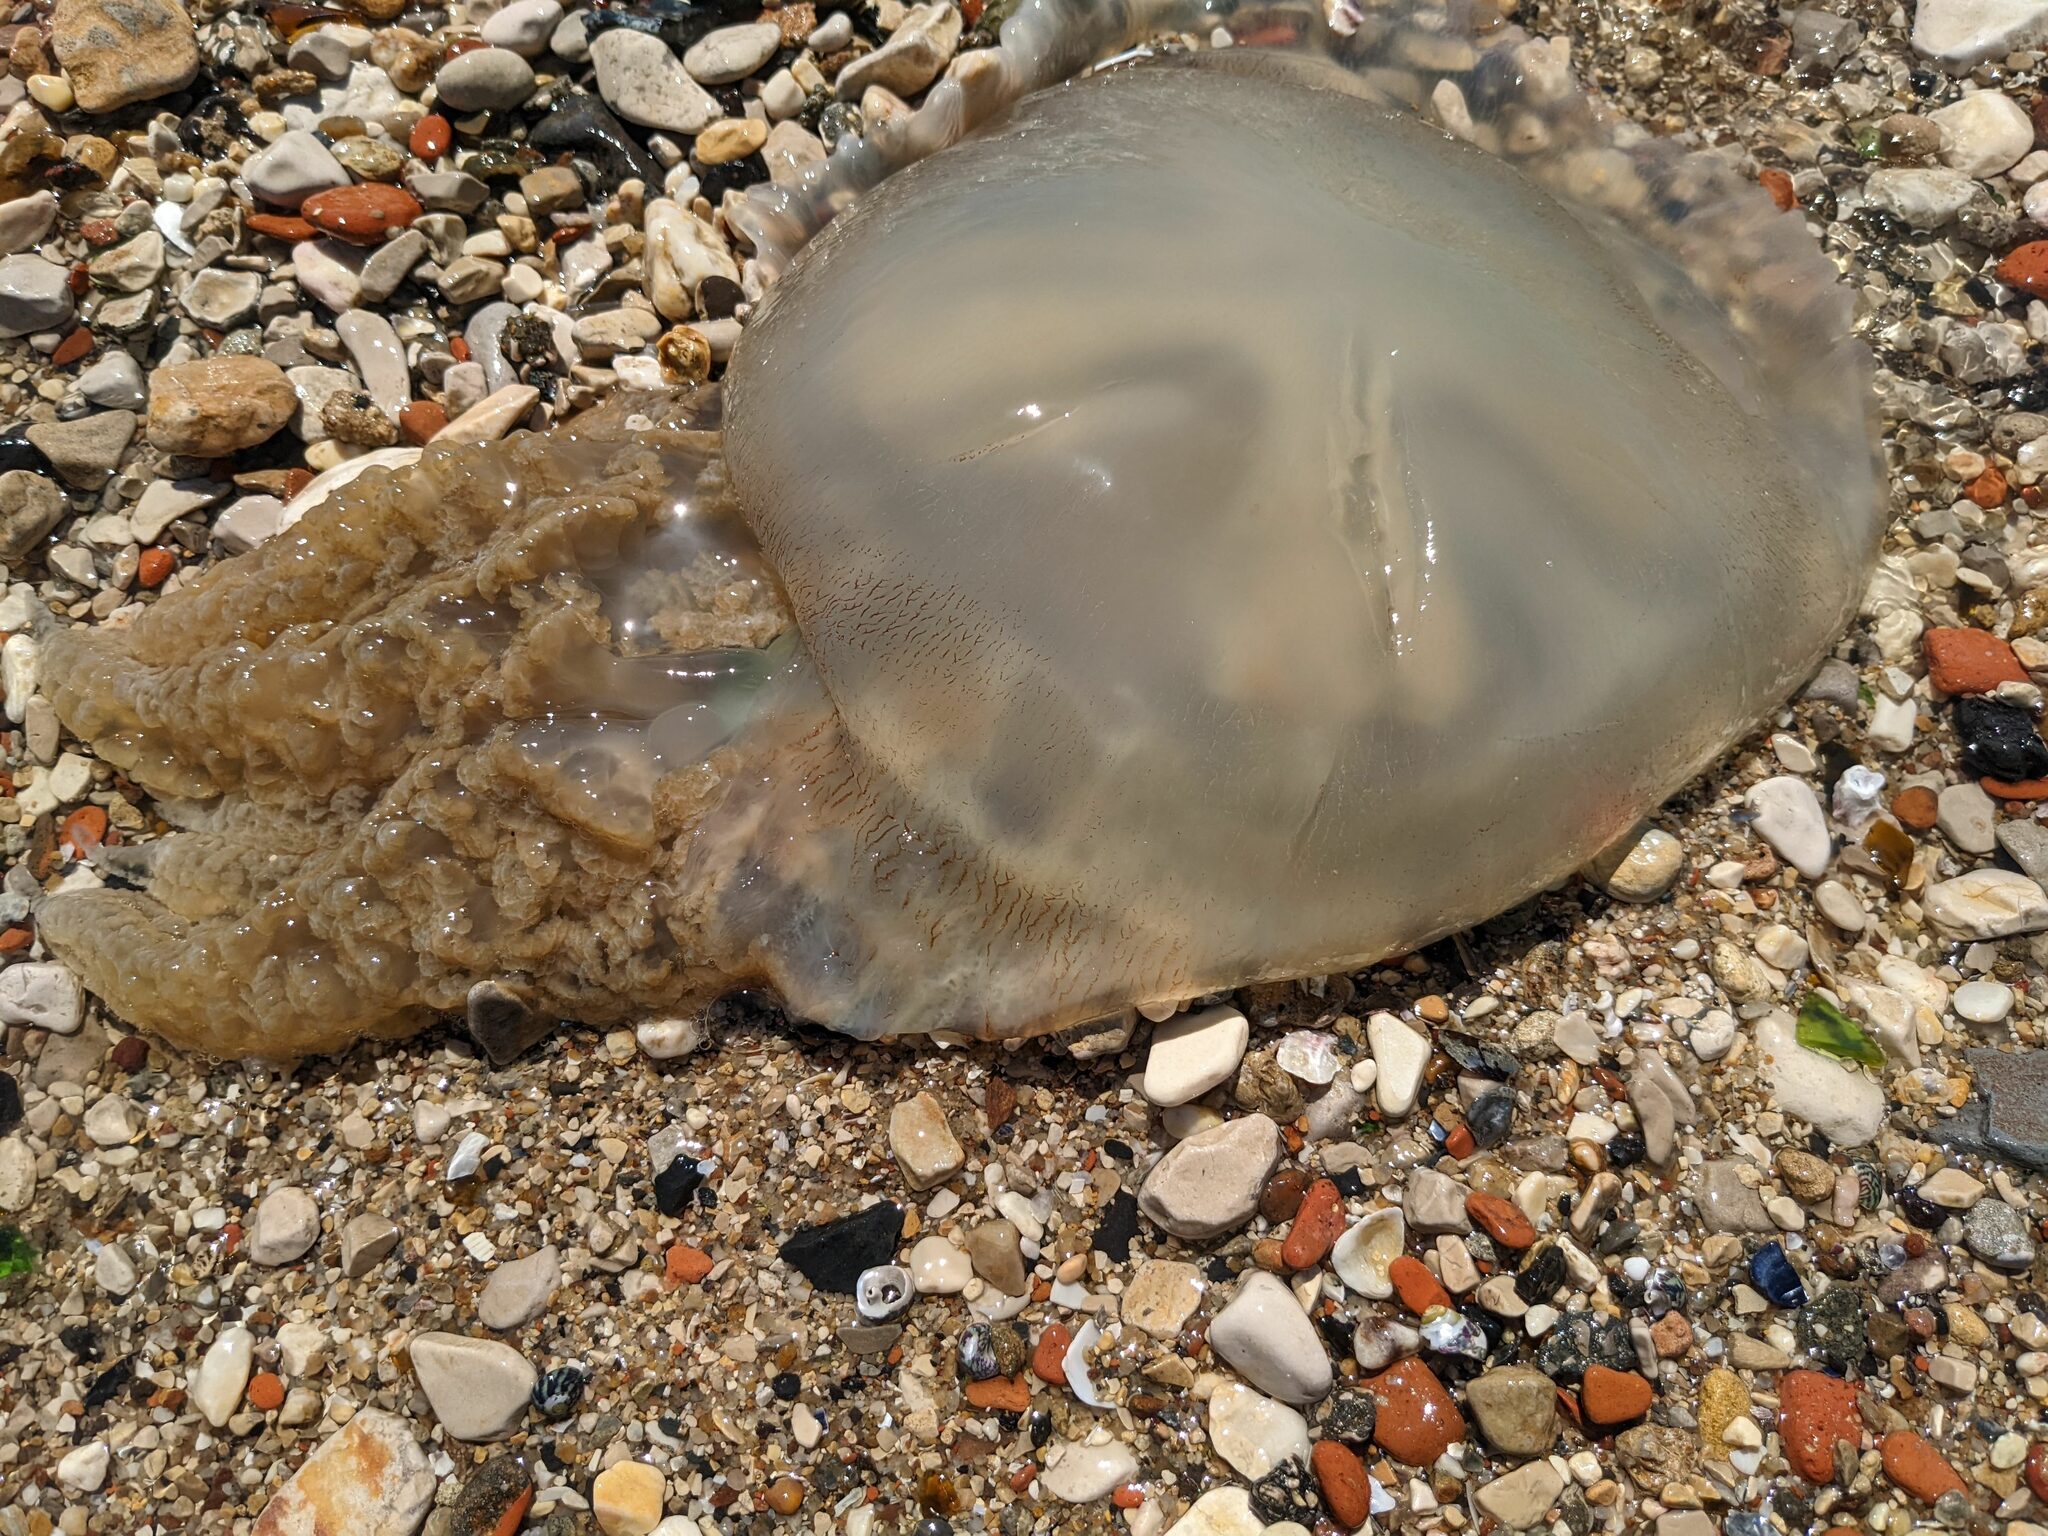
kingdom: Animalia
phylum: Cnidaria
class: Scyphozoa
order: Rhizostomeae
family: Catostylidae
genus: Catostylus
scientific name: Catostylus tagi
